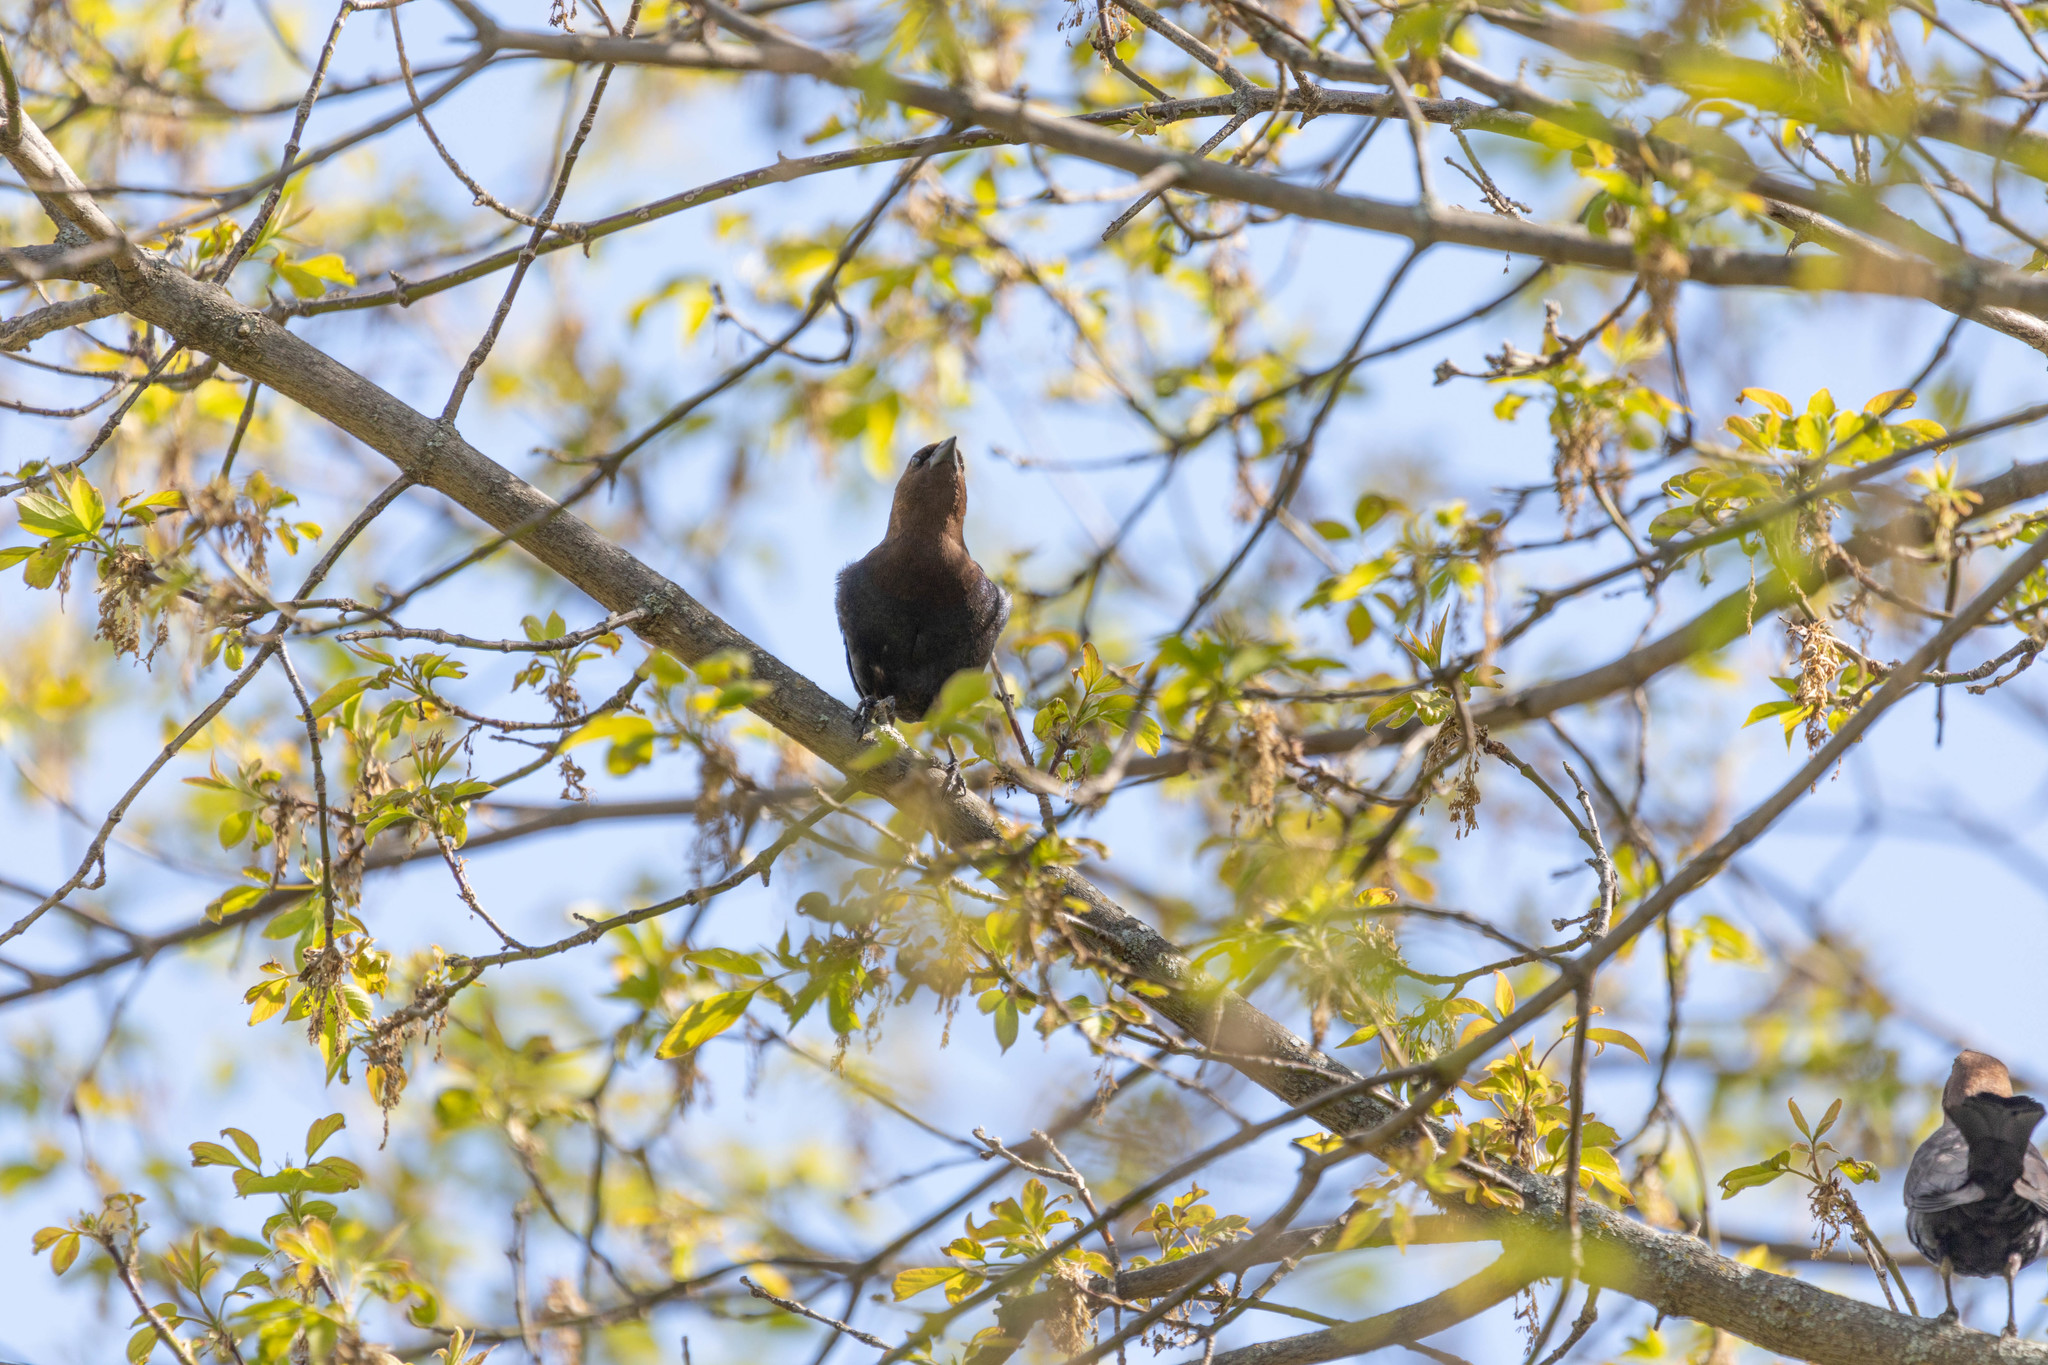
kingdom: Animalia
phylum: Chordata
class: Aves
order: Passeriformes
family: Icteridae
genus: Molothrus
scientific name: Molothrus ater
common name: Brown-headed cowbird
